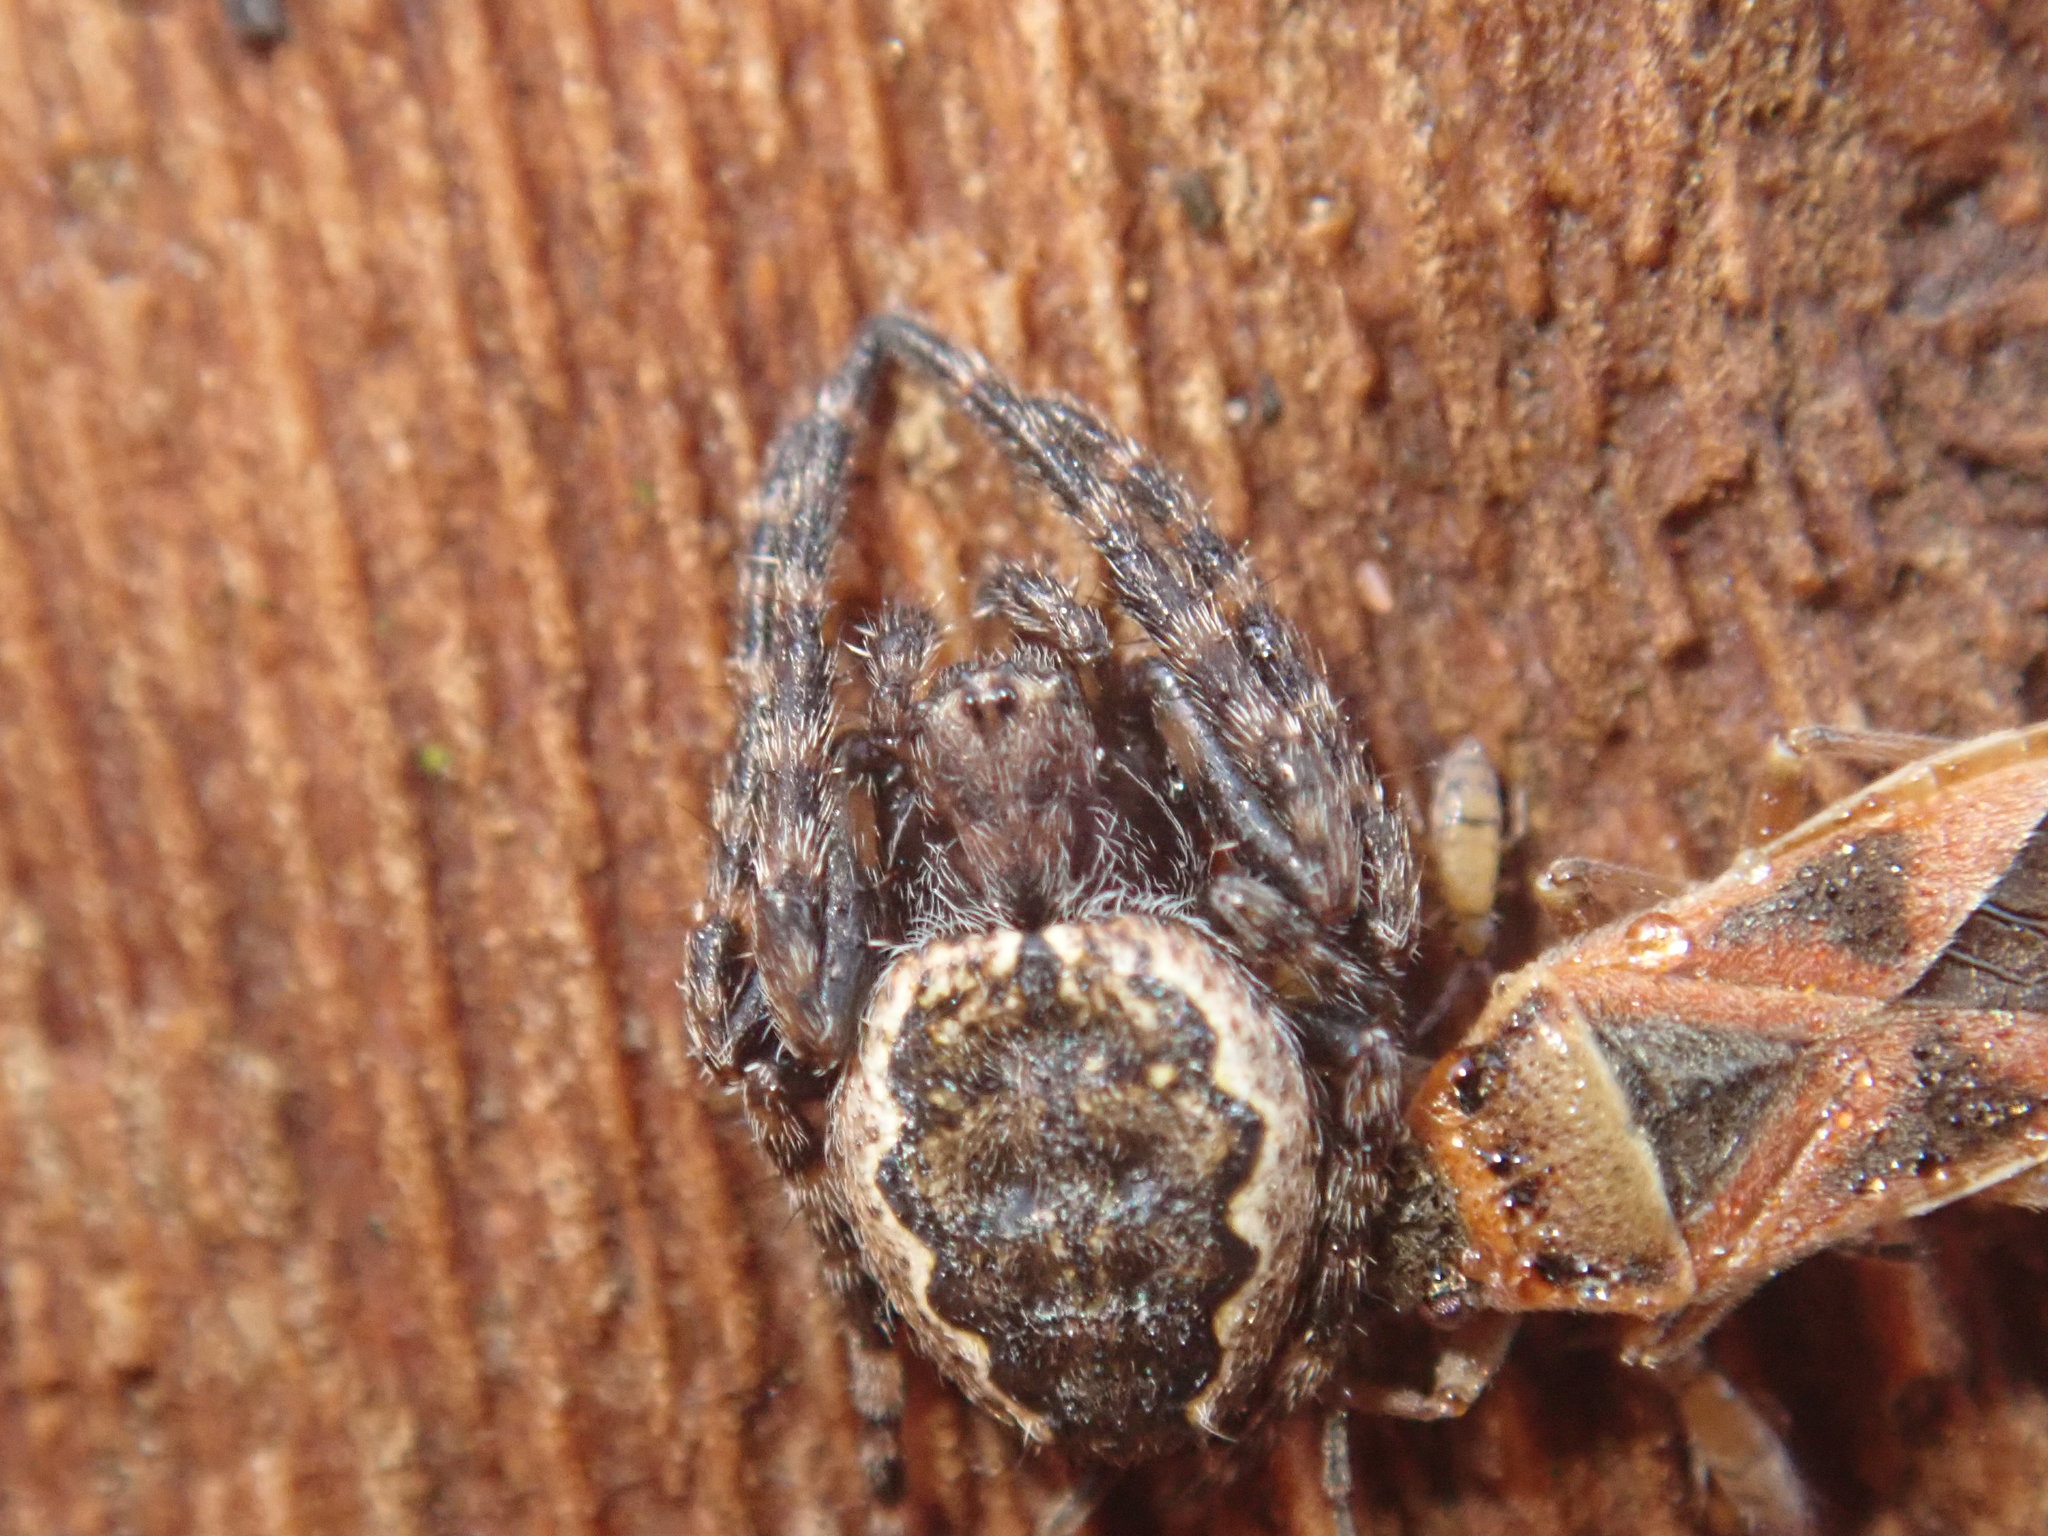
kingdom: Animalia
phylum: Arthropoda
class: Arachnida
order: Araneae
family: Araneidae
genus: Nuctenea
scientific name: Nuctenea umbratica
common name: Toad spider
